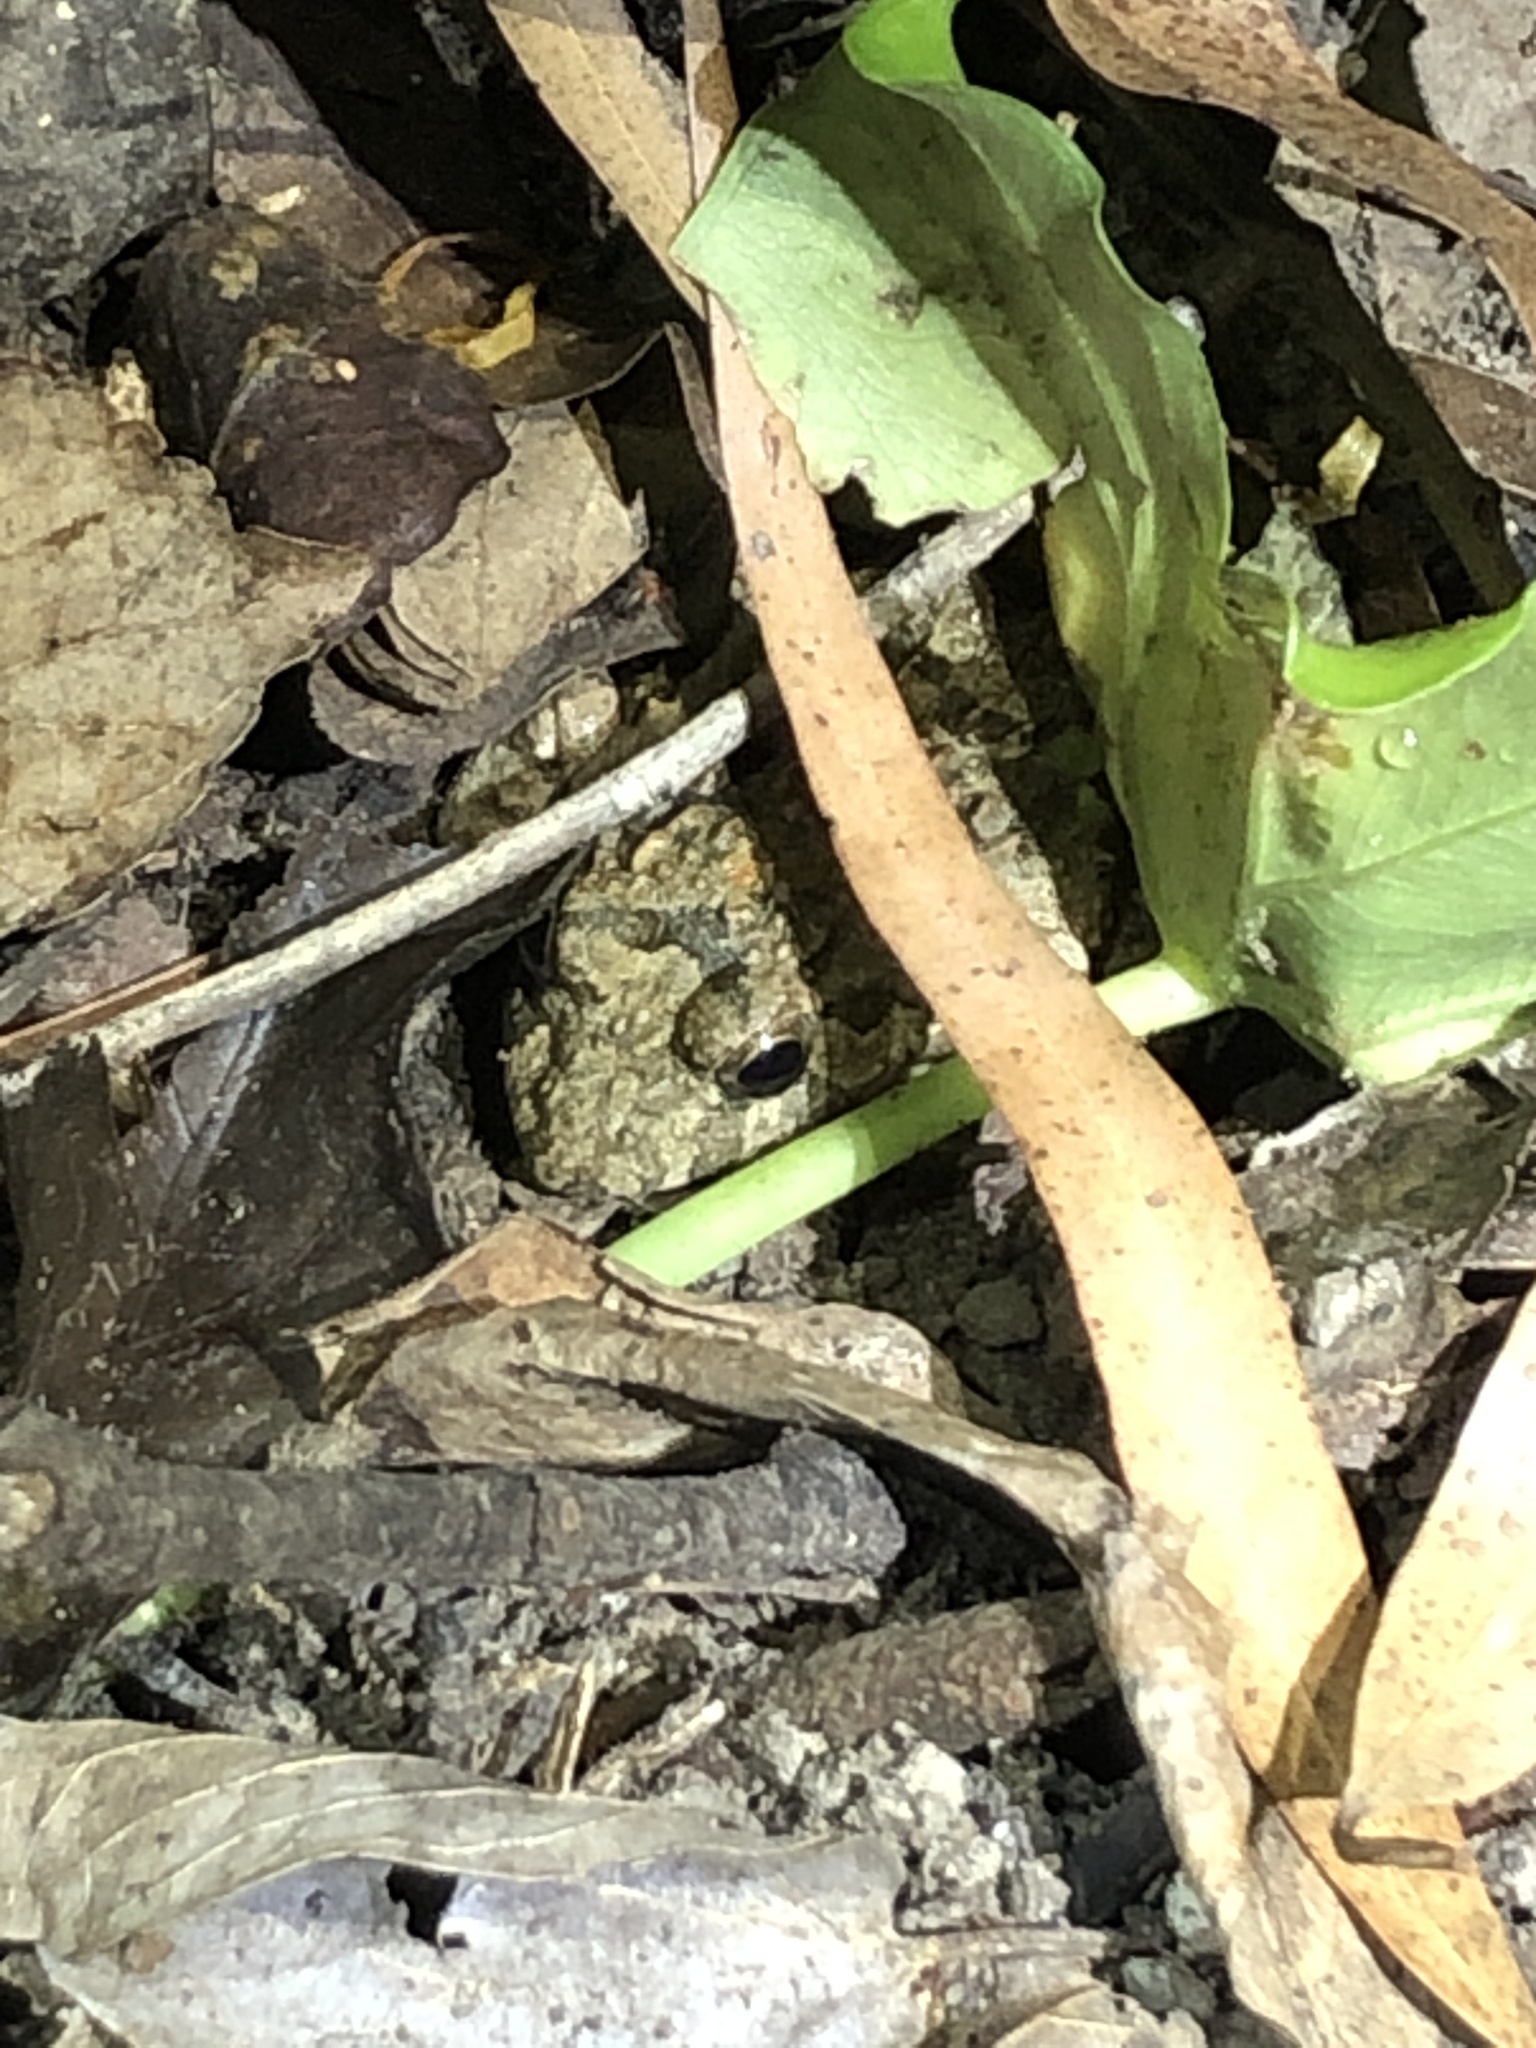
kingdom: Animalia
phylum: Chordata
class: Amphibia
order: Anura
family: Dicroglossidae
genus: Fejervarya
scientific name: Fejervarya multistriata
